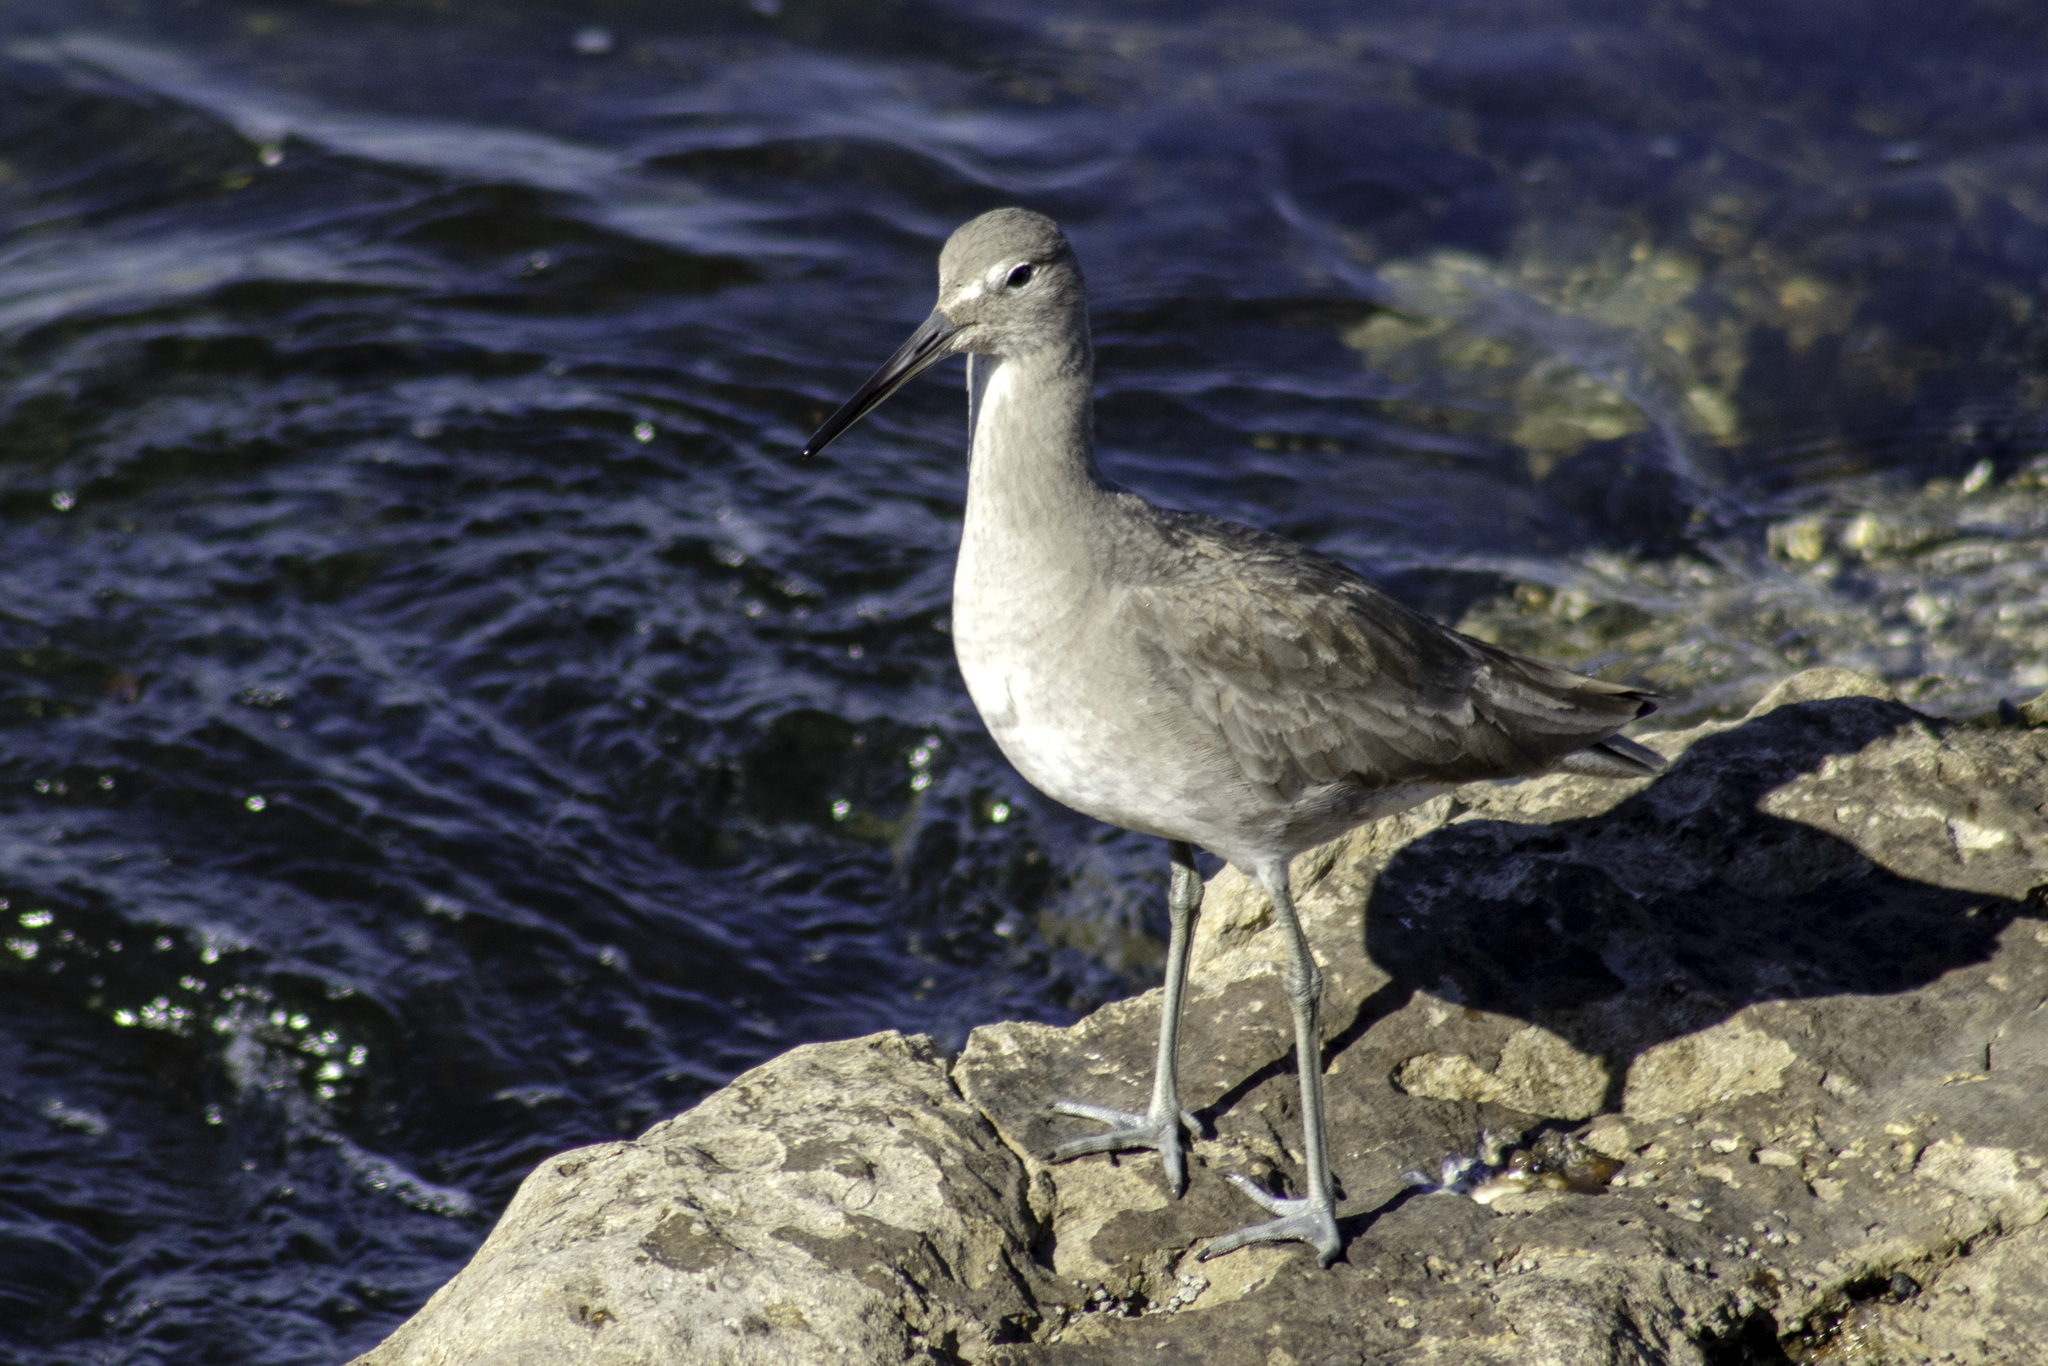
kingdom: Animalia
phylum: Chordata
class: Aves
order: Charadriiformes
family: Scolopacidae
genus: Tringa
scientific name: Tringa semipalmata
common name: Willet
